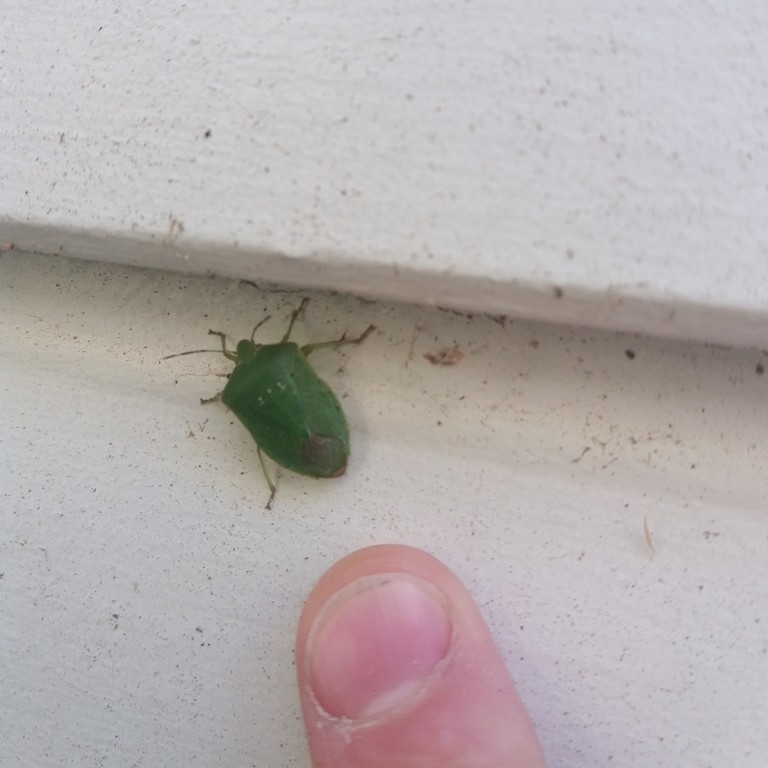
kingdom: Animalia
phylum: Arthropoda
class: Insecta
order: Hemiptera
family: Pentatomidae
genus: Nezara
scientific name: Nezara viridula
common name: Southern green stink bug
